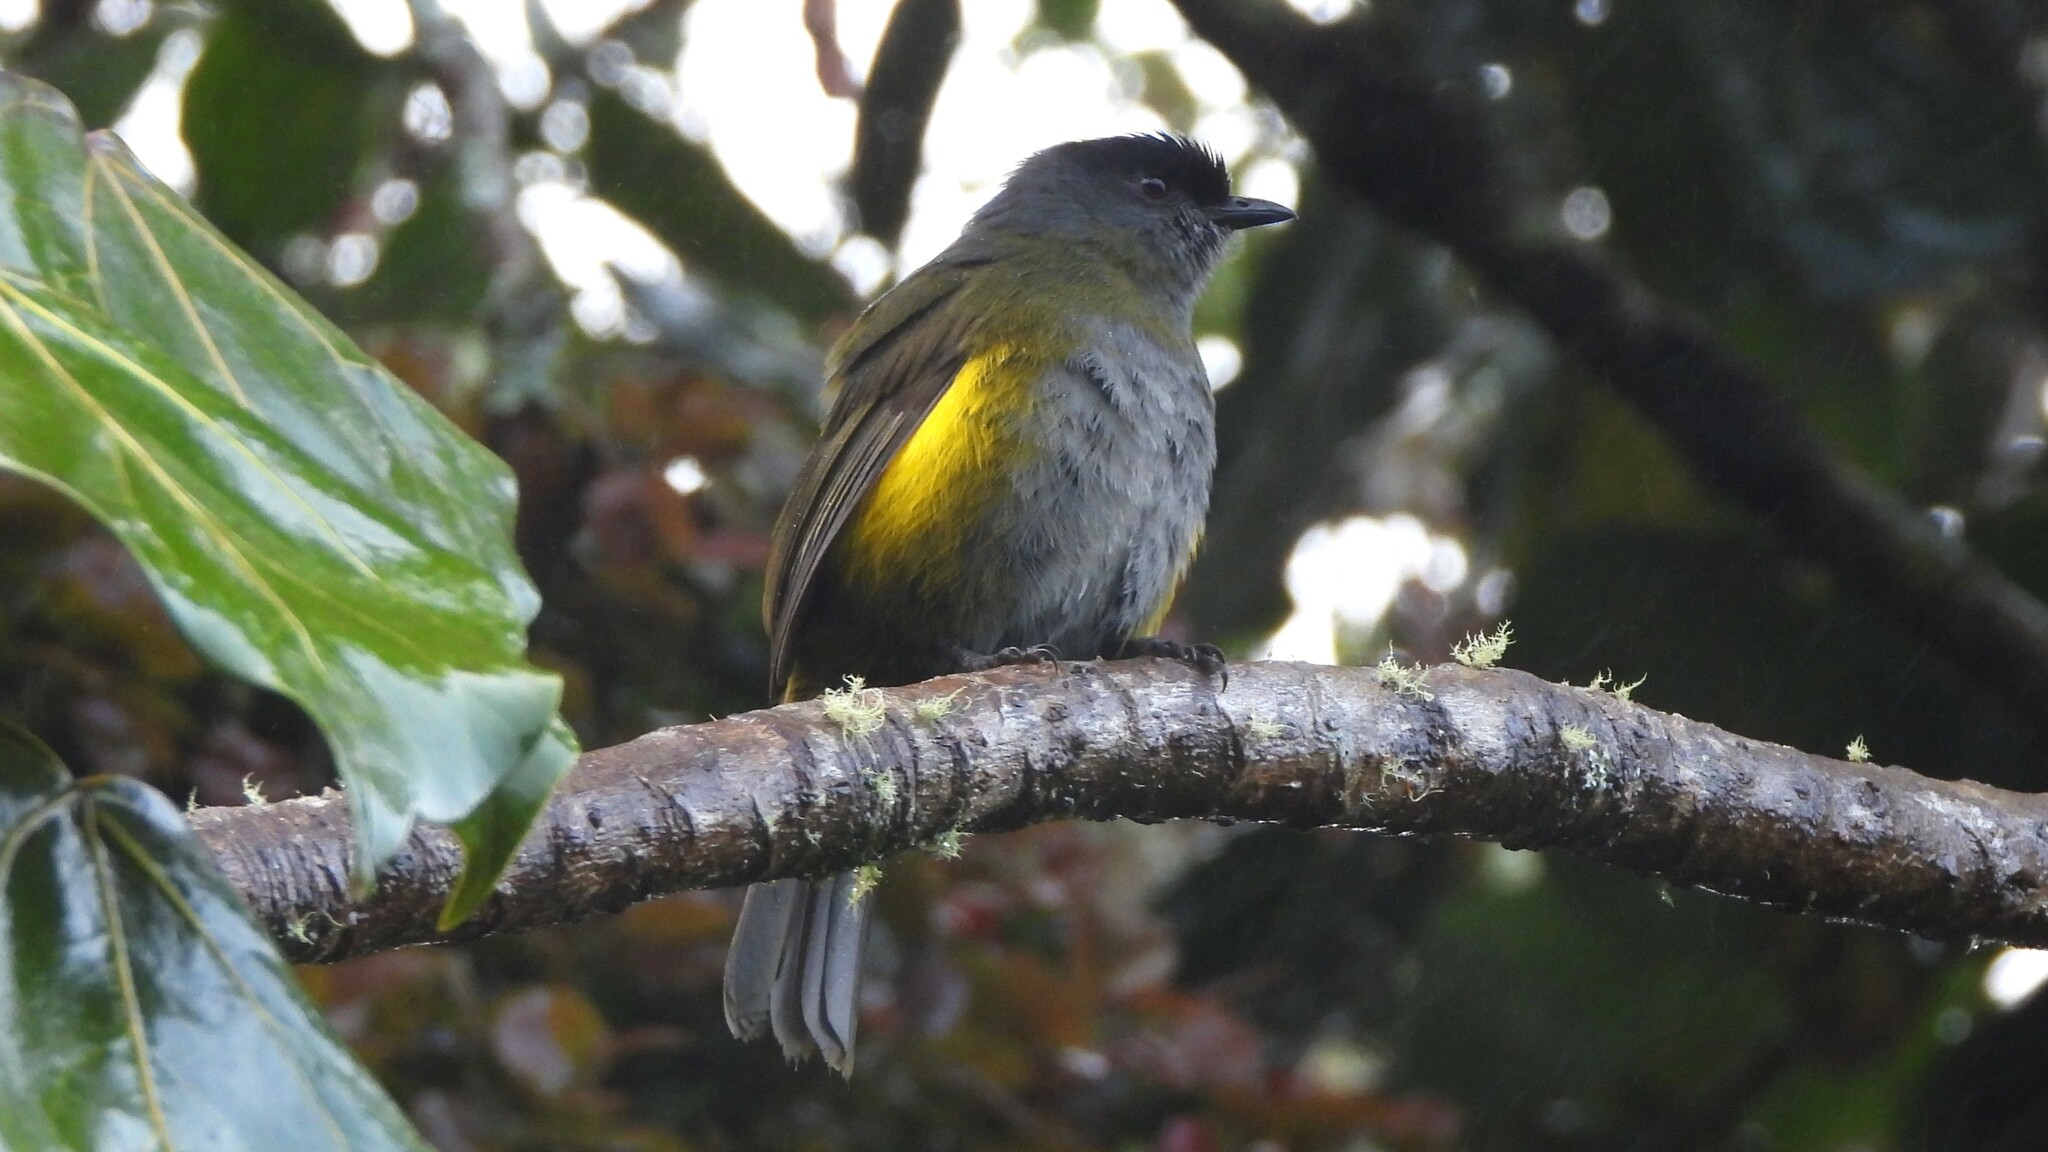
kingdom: Animalia
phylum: Chordata
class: Aves
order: Passeriformes
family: Ptilogonatidae
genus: Phainoptila
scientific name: Phainoptila melanoxantha
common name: Black-and-yellow phainoptila
